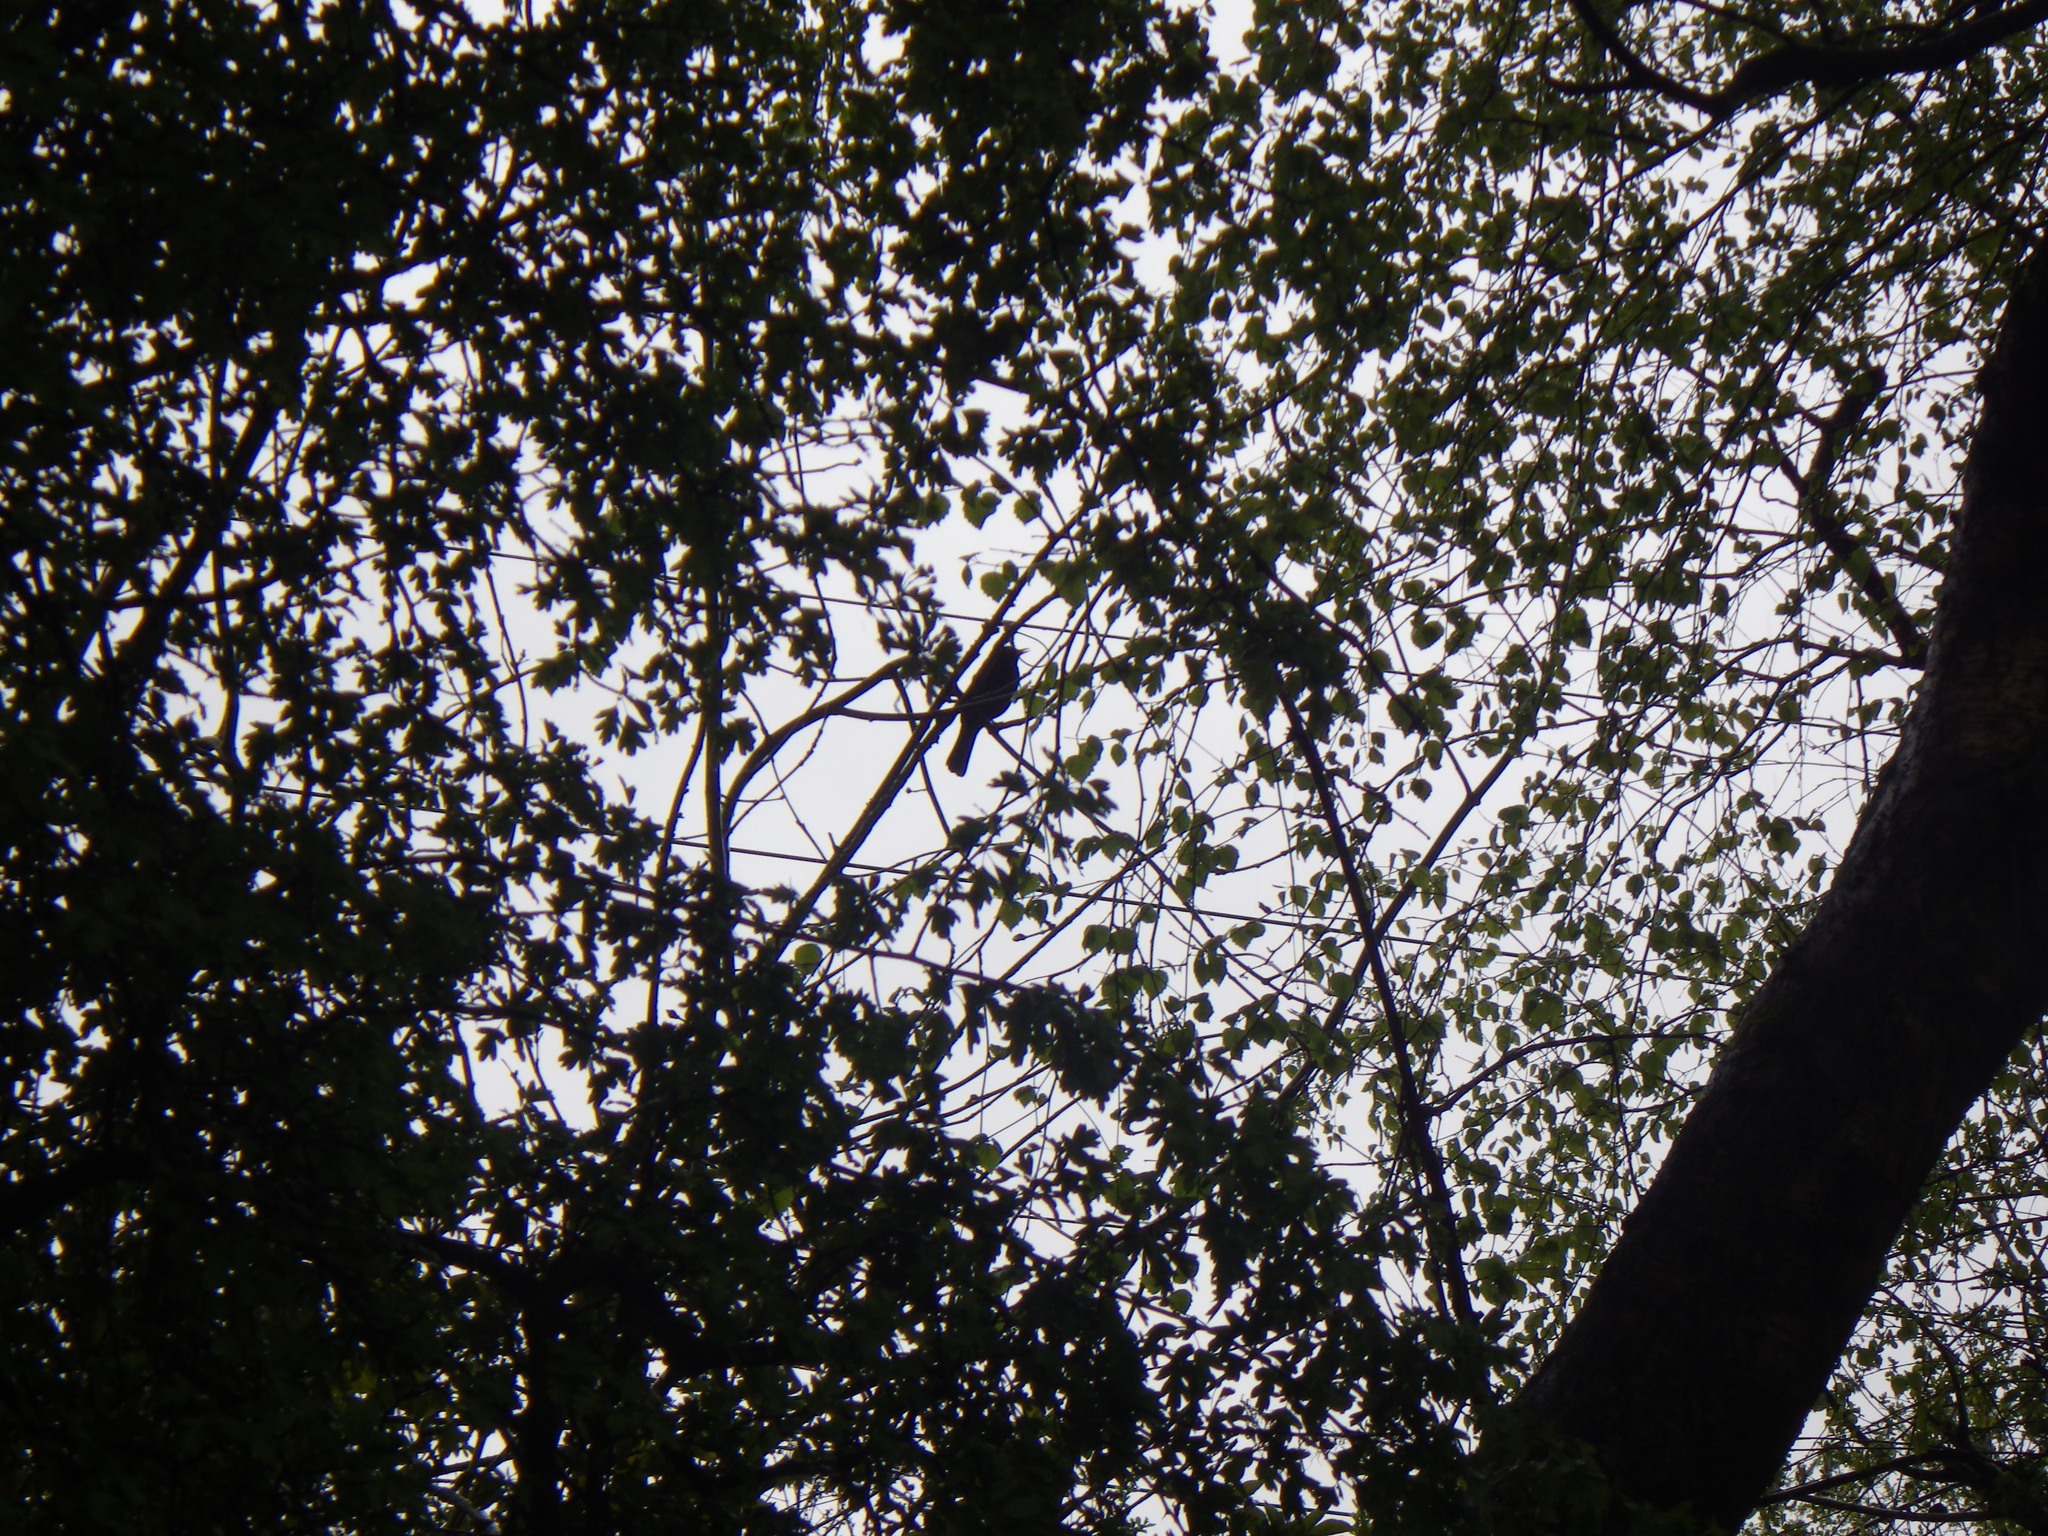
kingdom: Animalia
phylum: Chordata
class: Aves
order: Passeriformes
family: Turdidae
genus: Turdus
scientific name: Turdus merula
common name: Common blackbird
